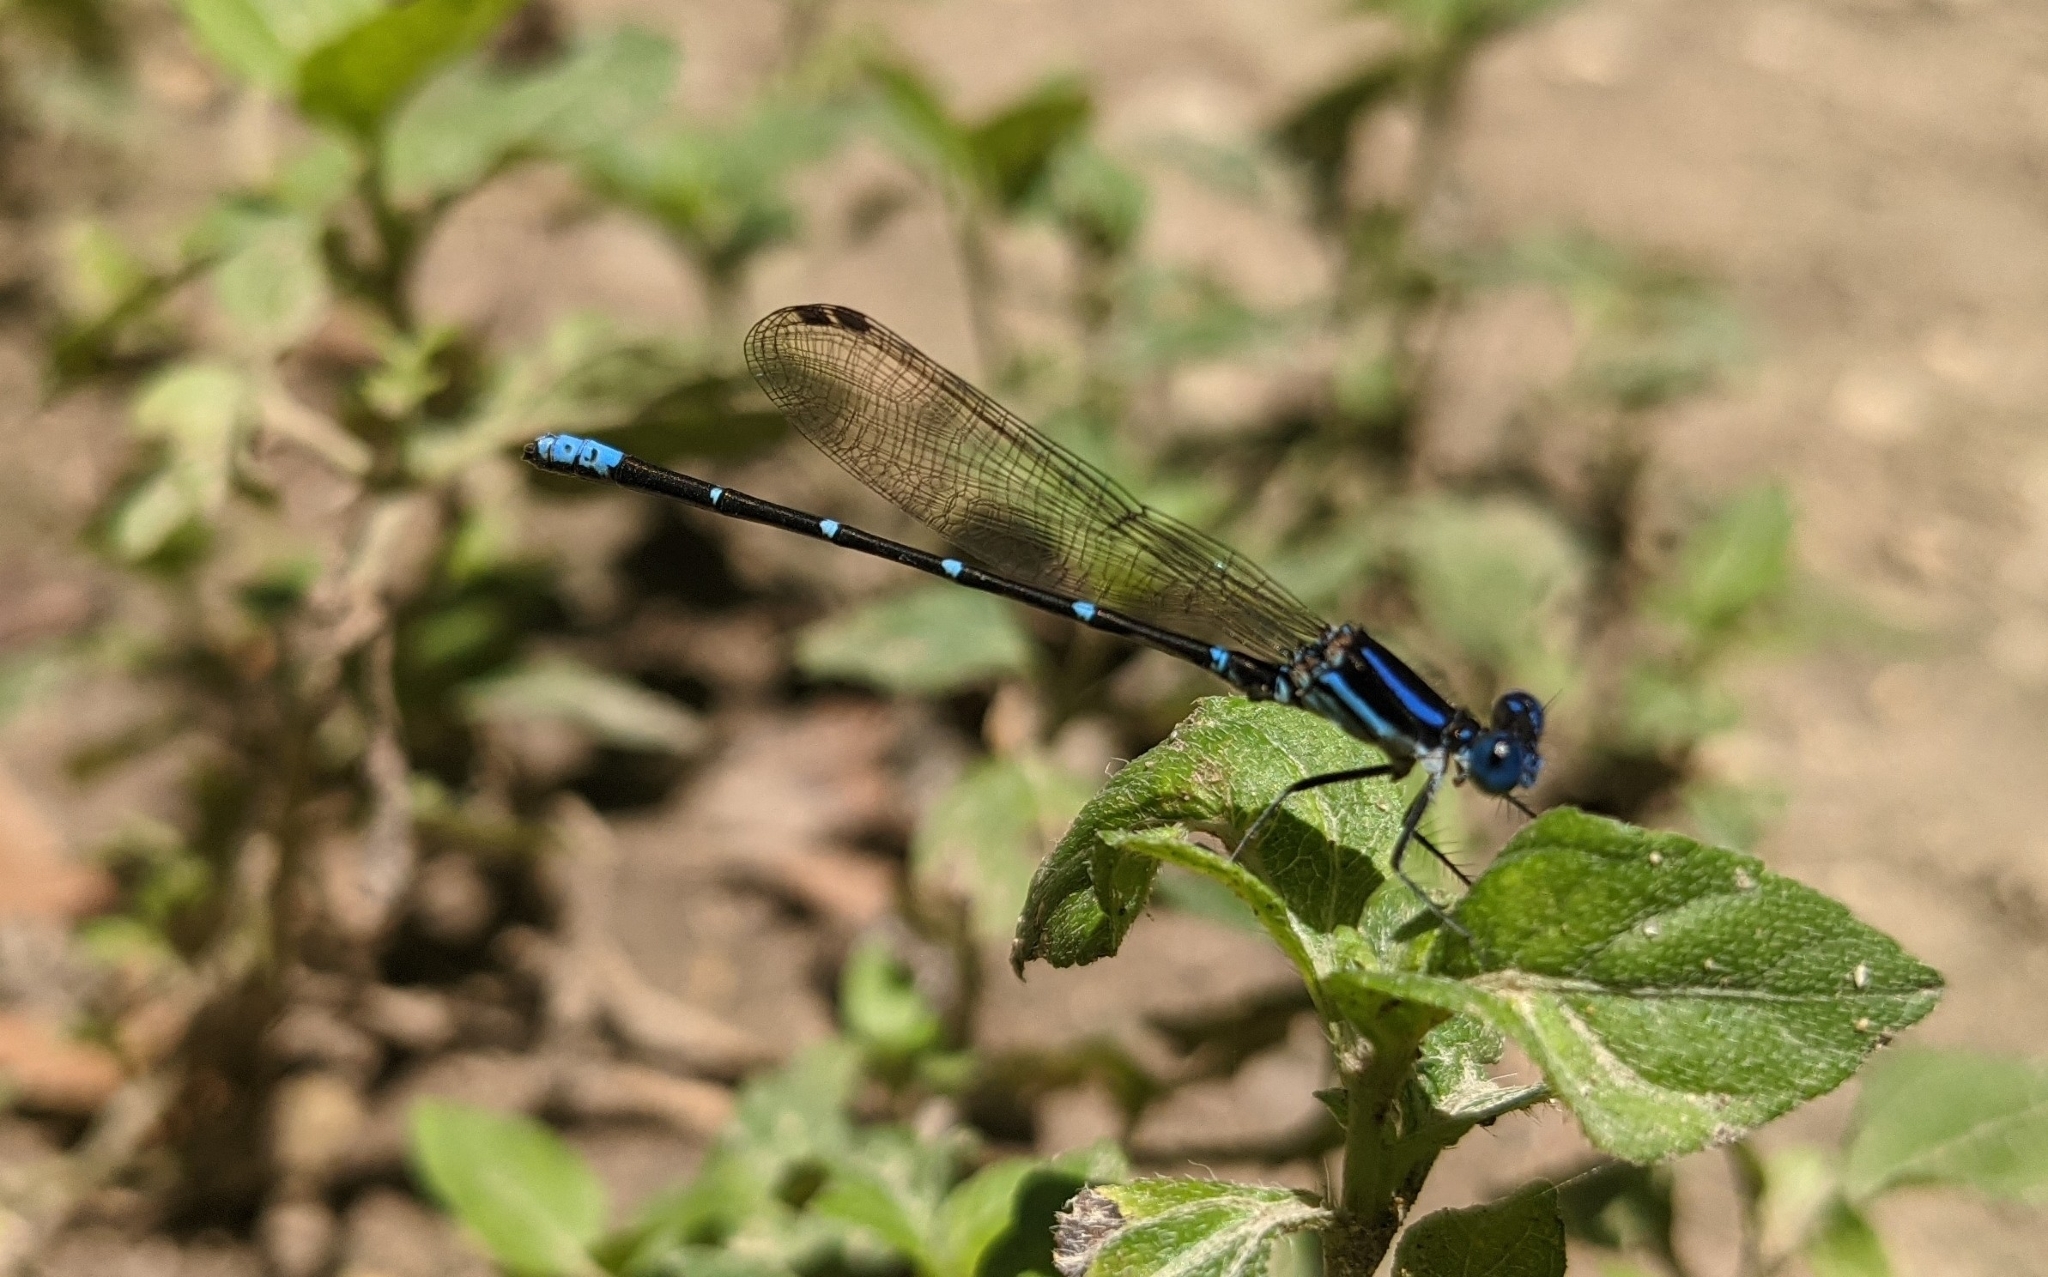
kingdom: Animalia
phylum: Arthropoda
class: Insecta
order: Odonata
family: Coenagrionidae
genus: Argia
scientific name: Argia sedula
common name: Blue-ringed dancer
